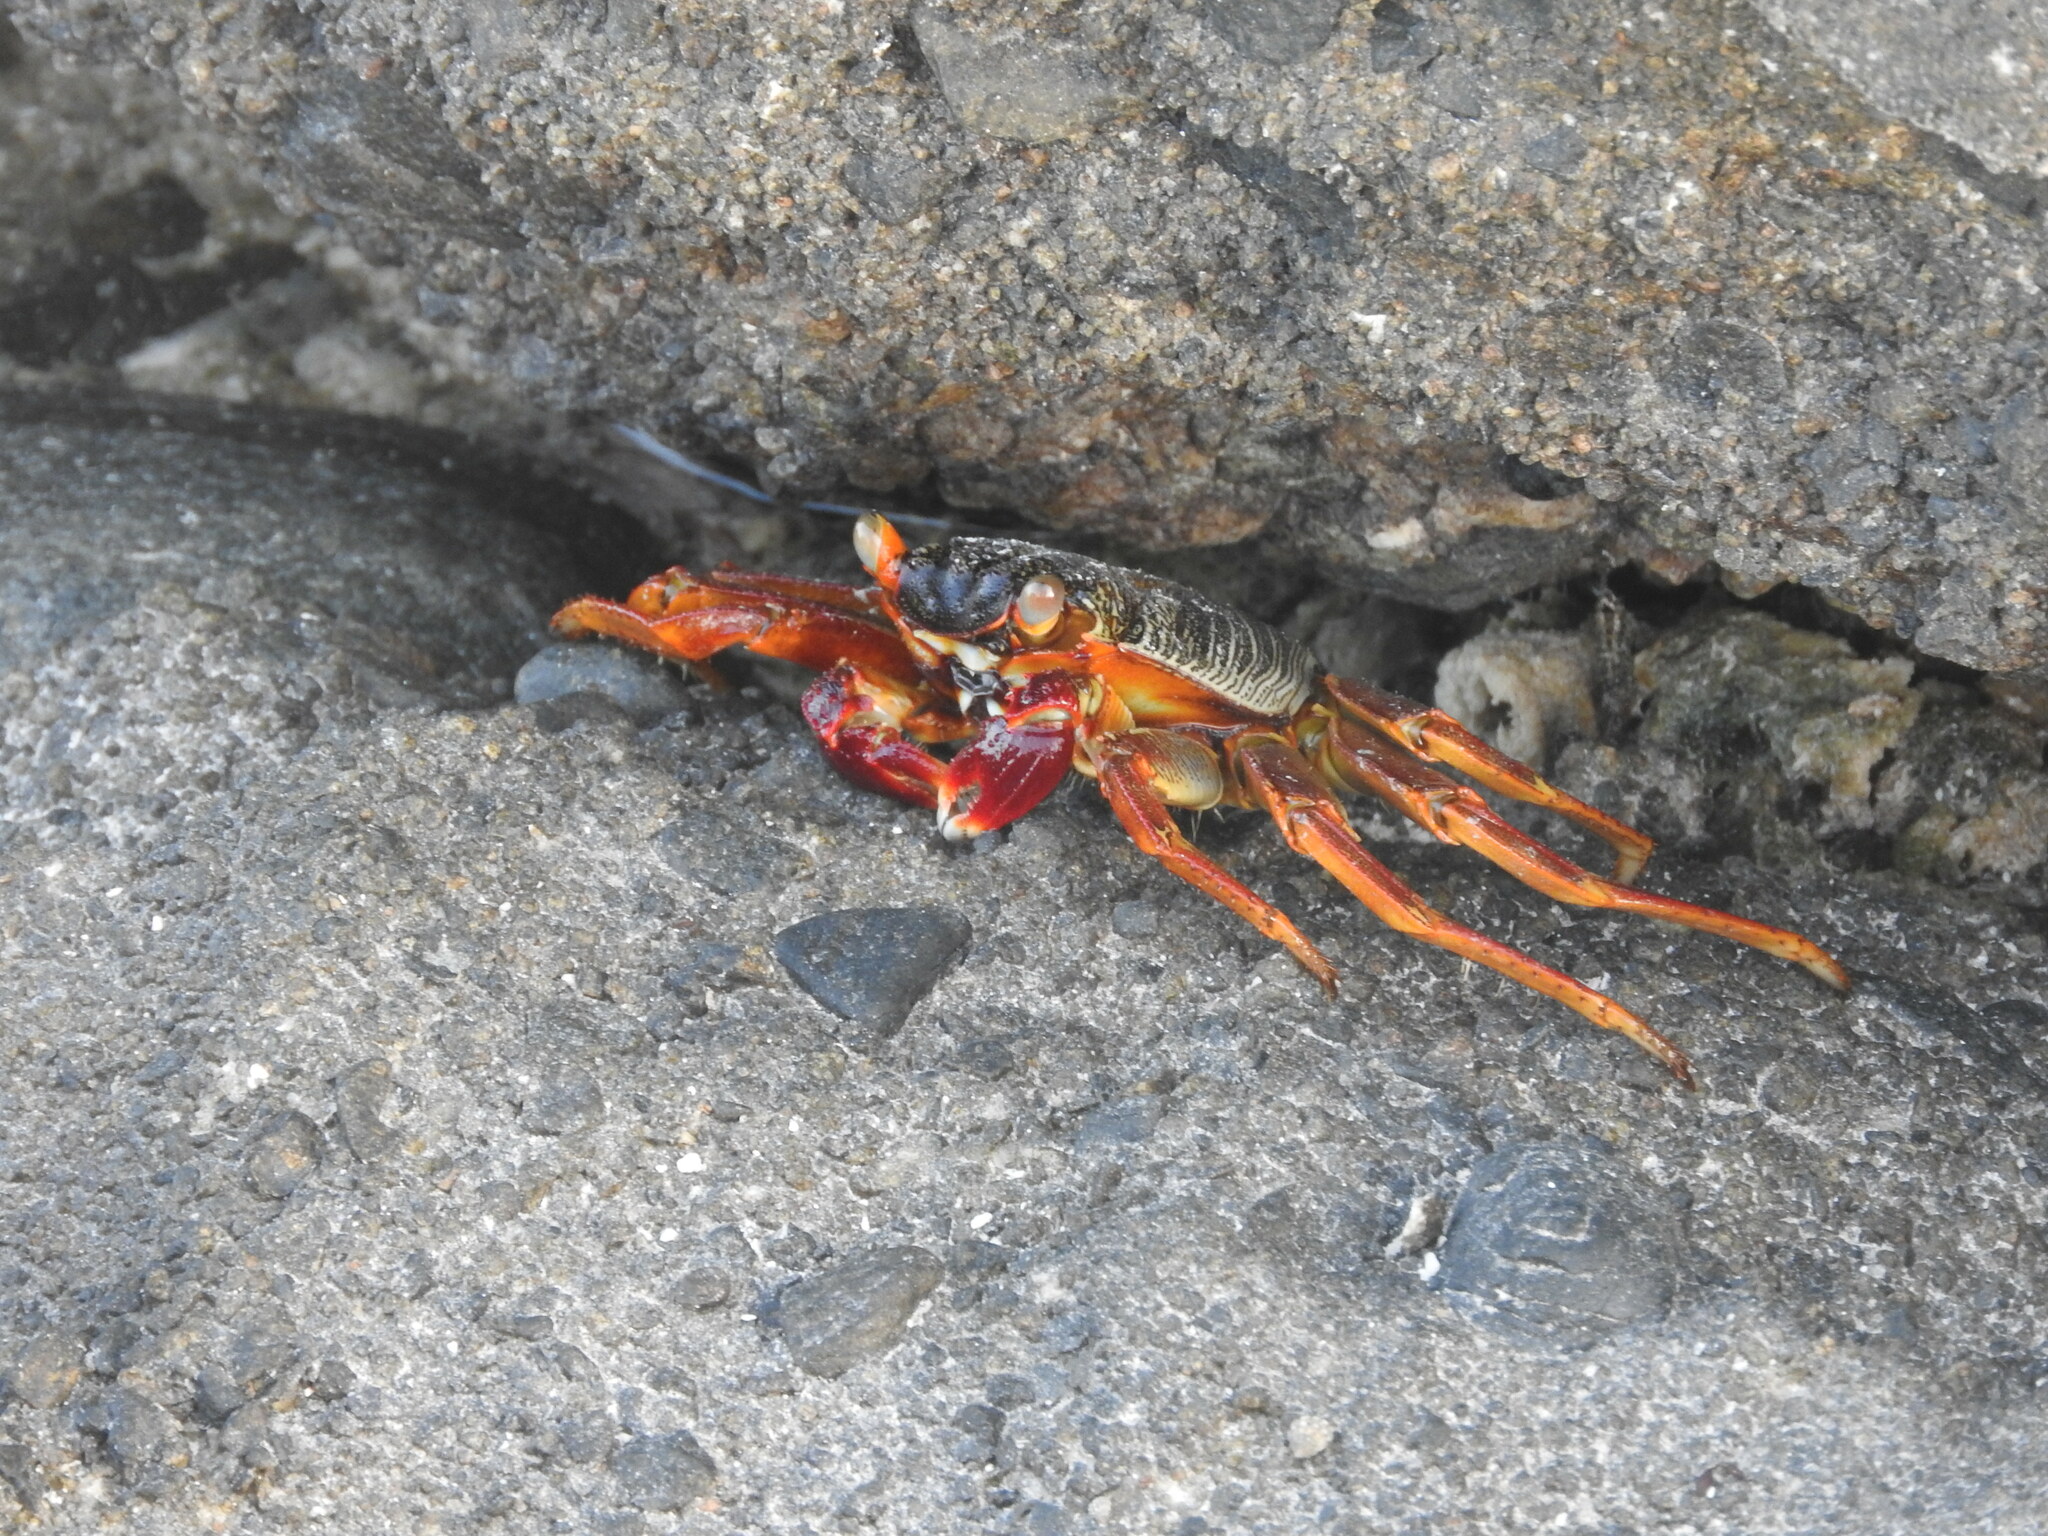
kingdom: Animalia
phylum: Arthropoda
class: Malacostraca
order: Decapoda
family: Grapsidae
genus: Grapsus
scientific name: Grapsus tenuicrustatus
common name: Natal lightfoot crab
